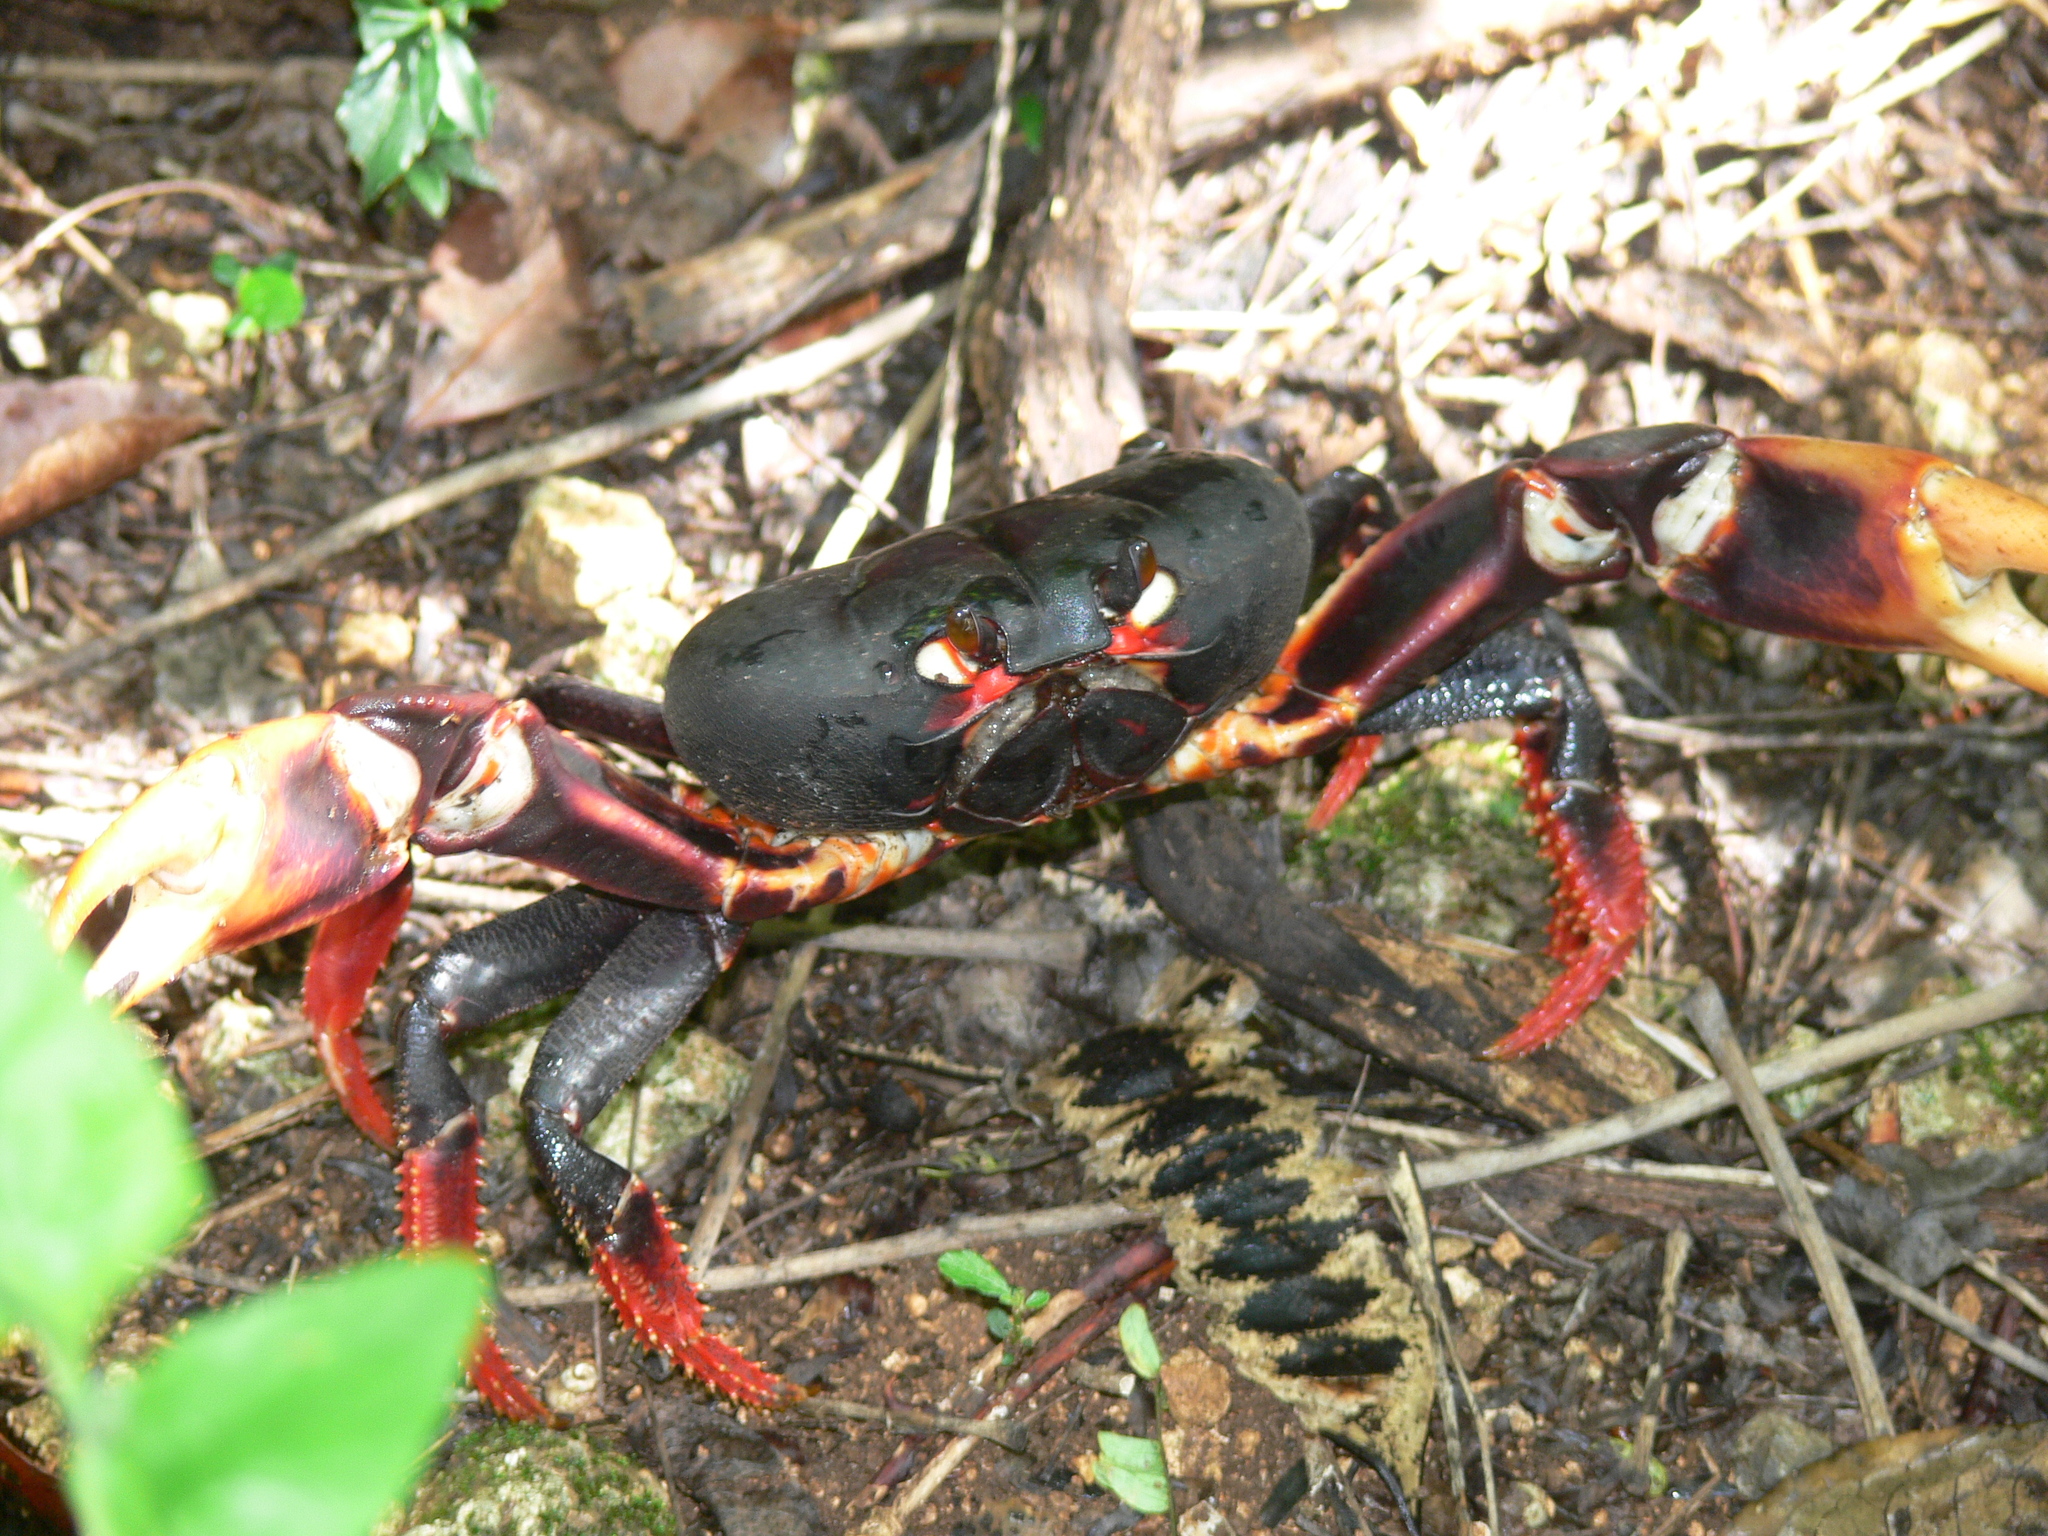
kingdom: Animalia
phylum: Arthropoda
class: Malacostraca
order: Decapoda
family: Gecarcinidae
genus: Gecarcinus
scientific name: Gecarcinus ruricola
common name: Black land crab
